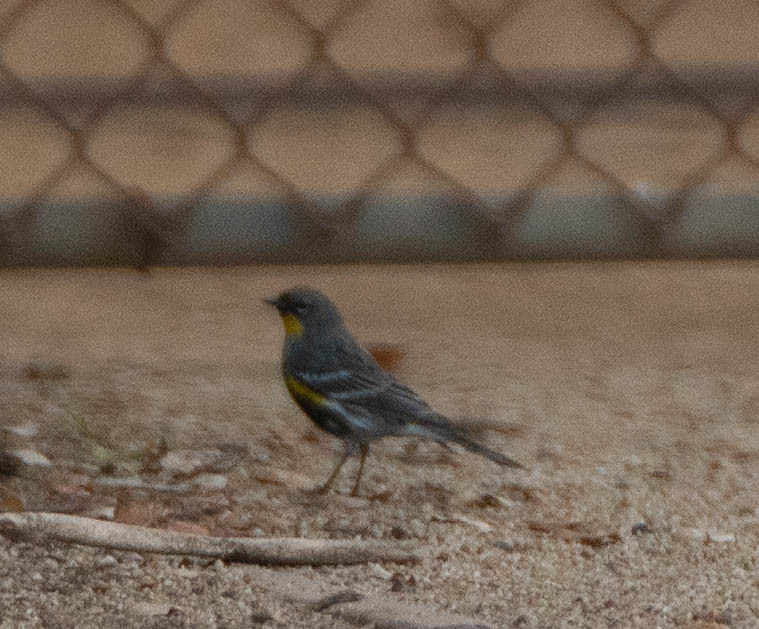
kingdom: Animalia
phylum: Chordata
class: Aves
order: Passeriformes
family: Parulidae
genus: Setophaga
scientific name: Setophaga auduboni
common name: Audubon's warbler
